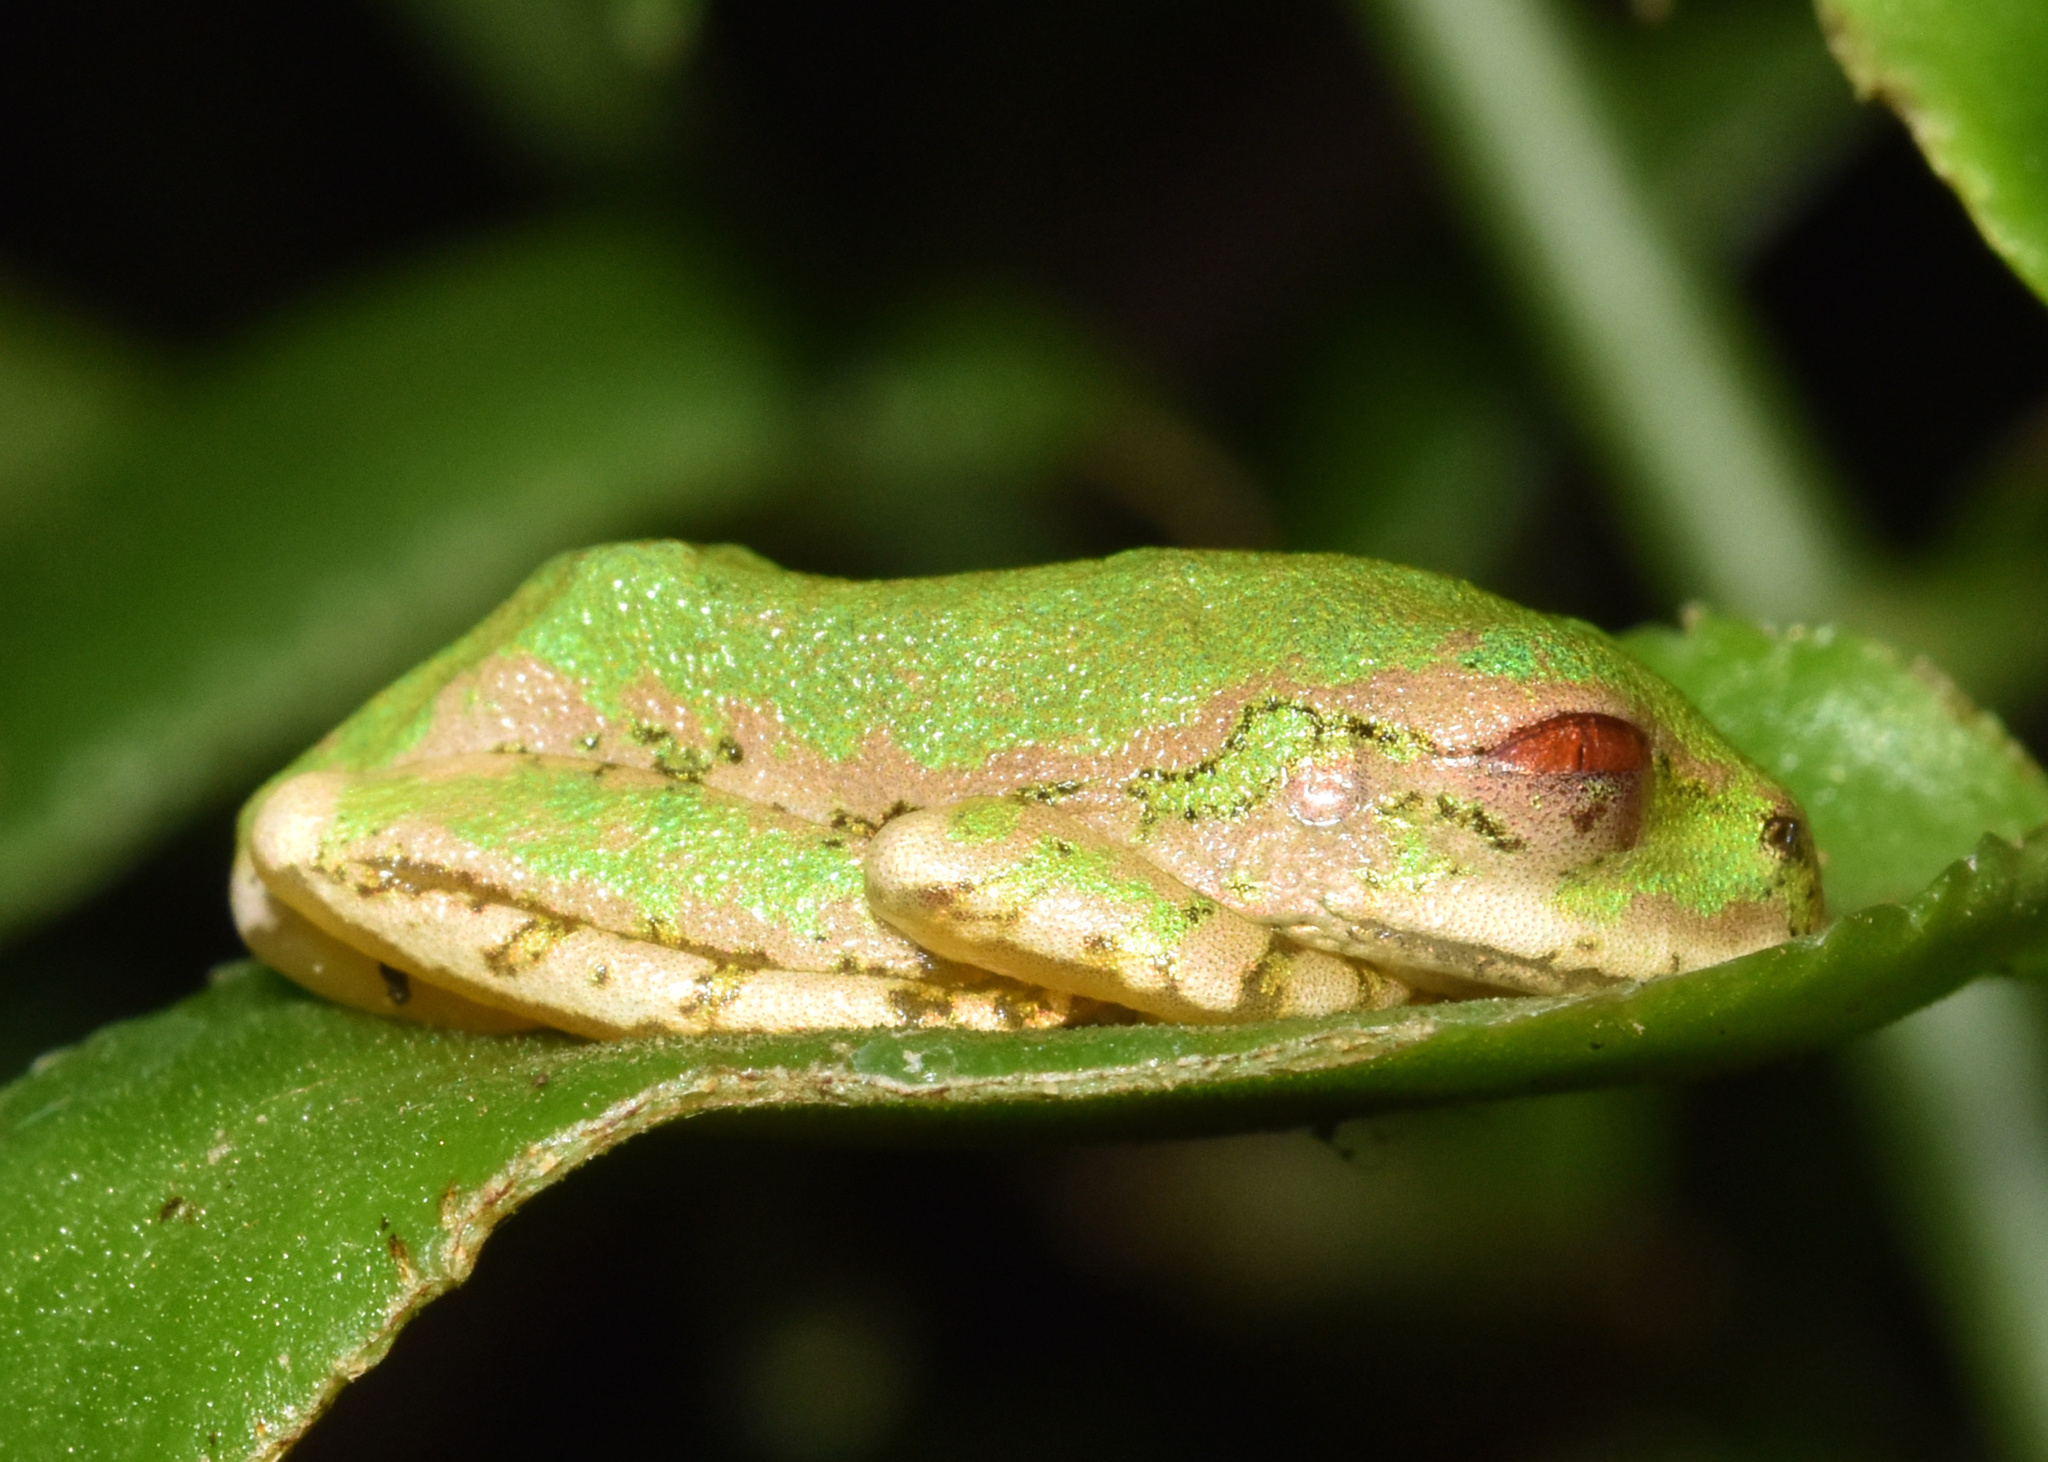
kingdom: Animalia
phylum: Chordata
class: Amphibia
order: Anura
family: Arthroleptidae
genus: Leptopelis
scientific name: Leptopelis natalensis
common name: Natal tree frog
